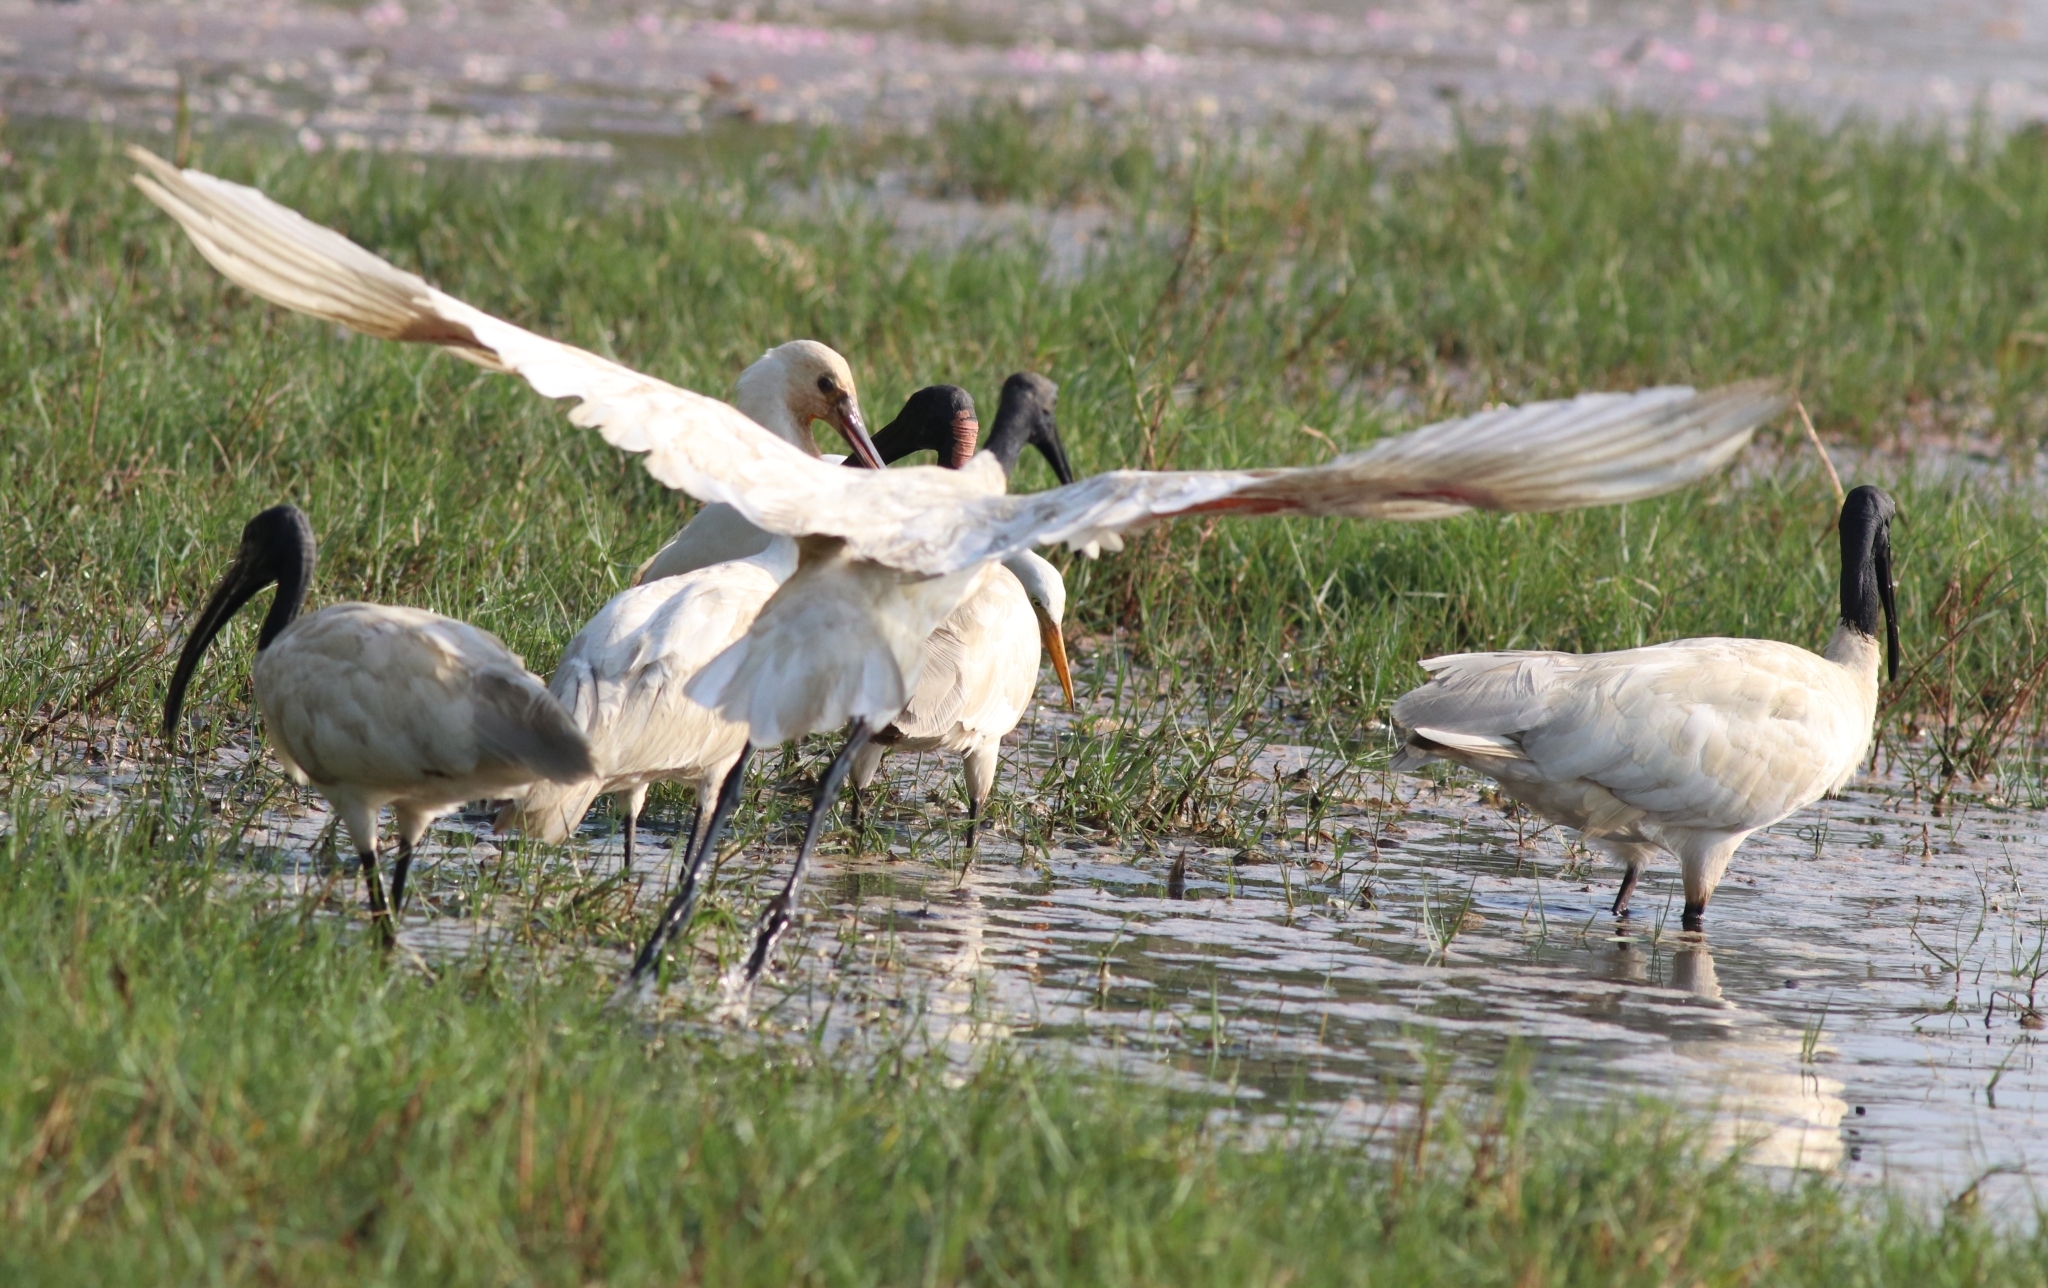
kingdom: Animalia
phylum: Chordata
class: Aves
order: Pelecaniformes
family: Threskiornithidae
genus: Threskiornis
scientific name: Threskiornis melanocephalus
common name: Black-headed ibis
